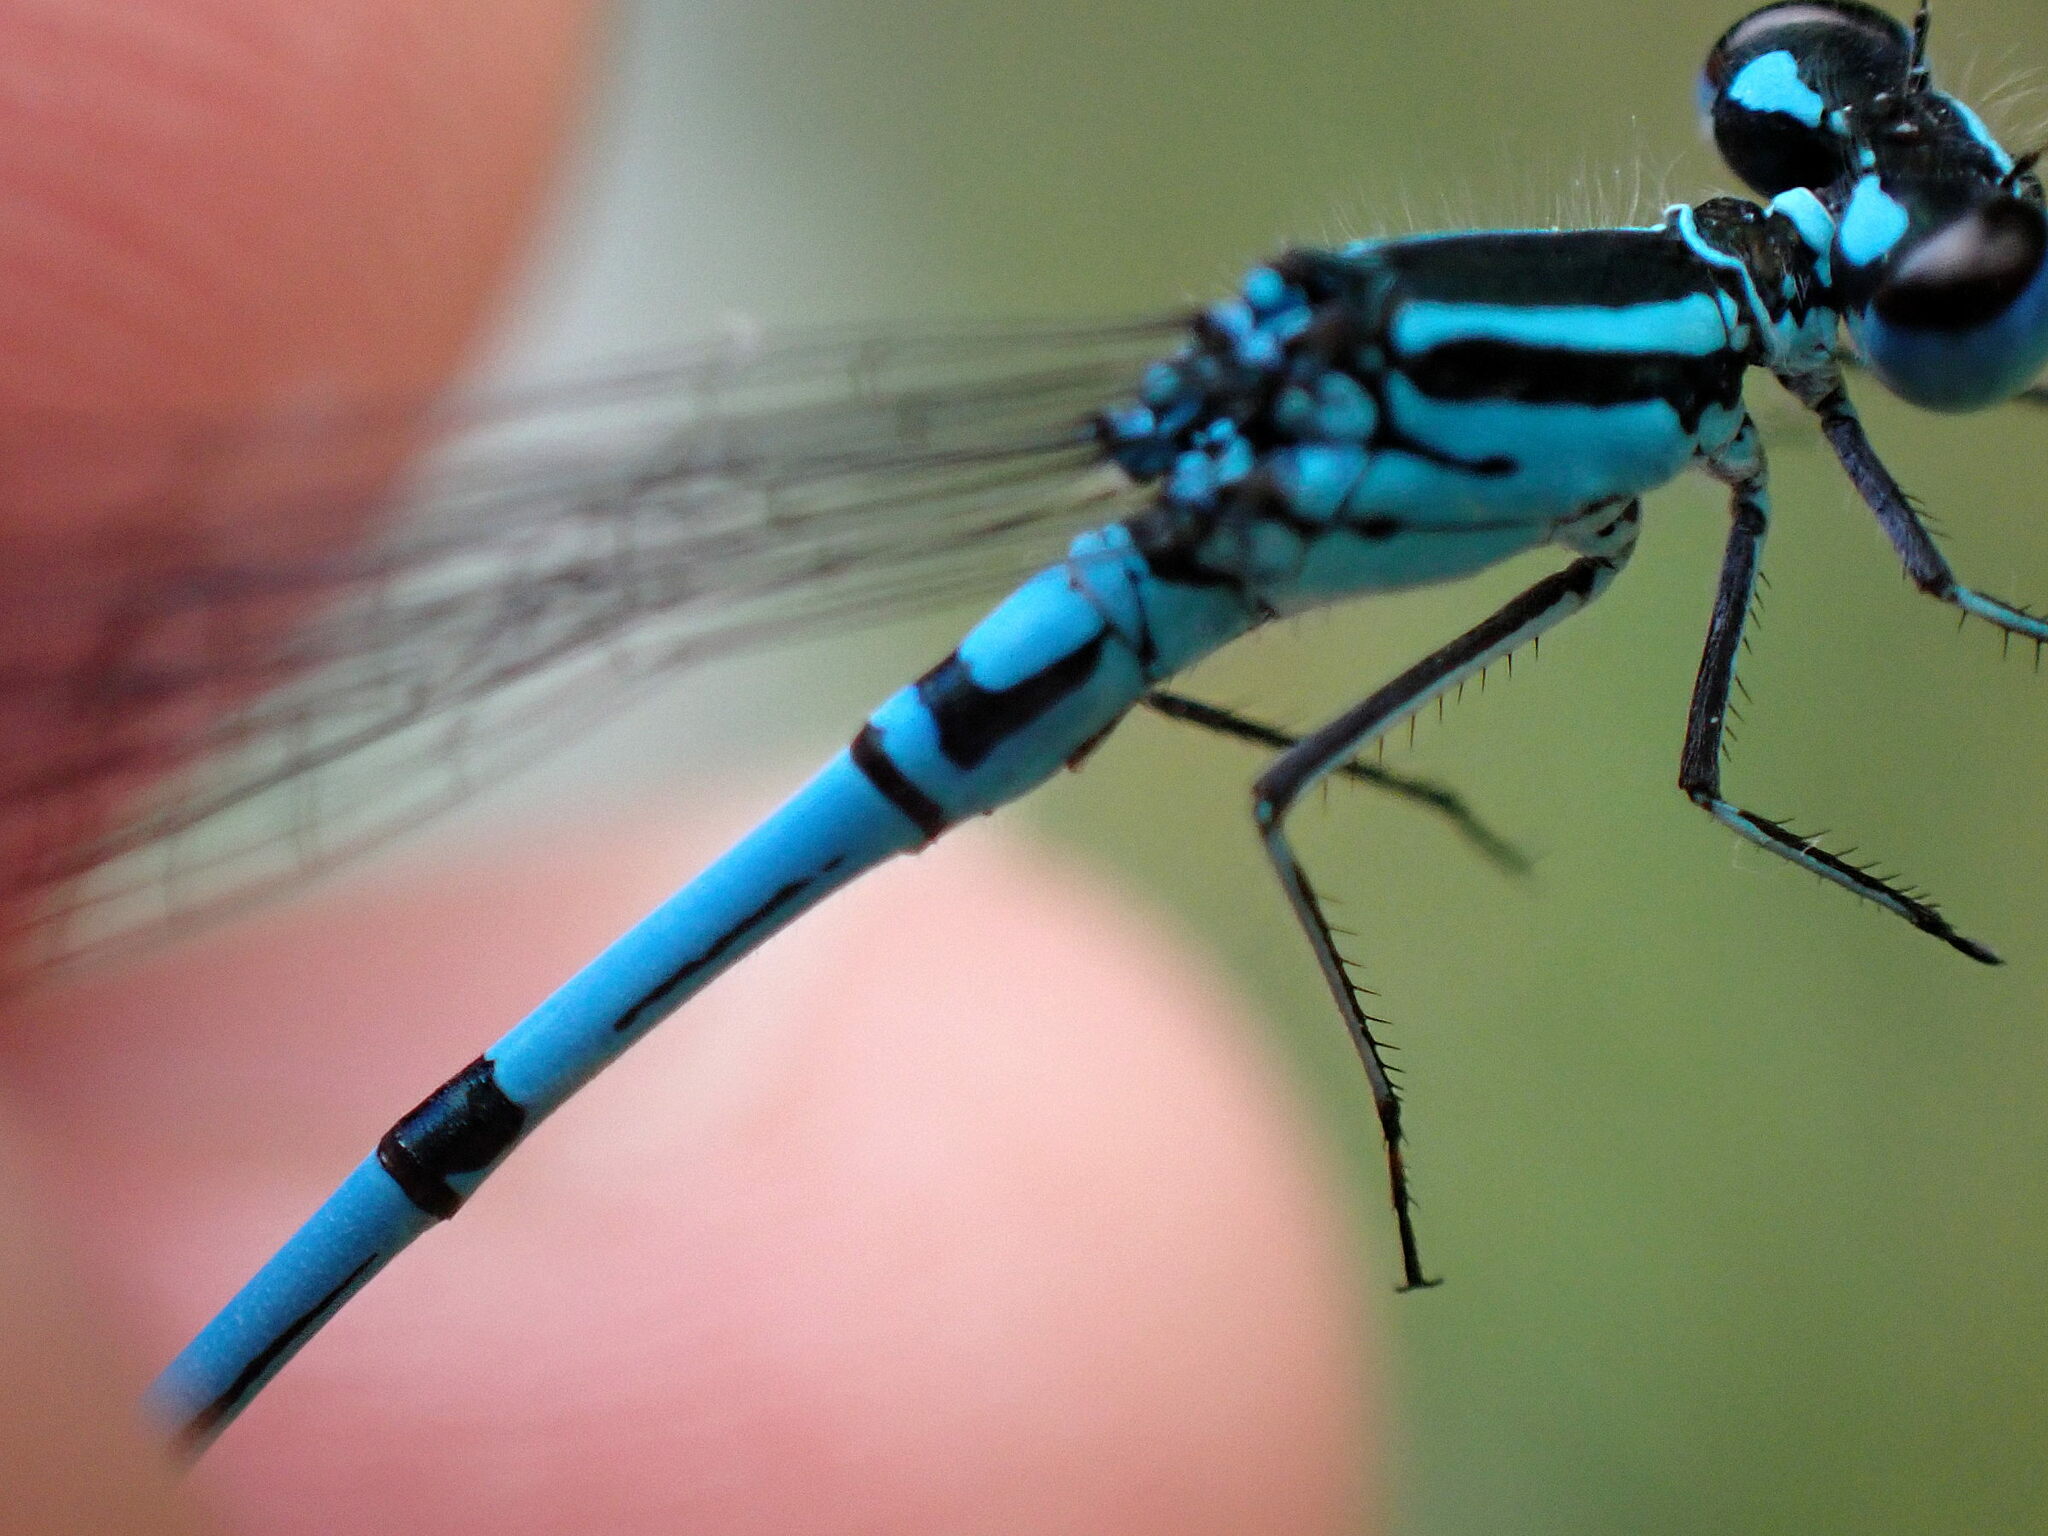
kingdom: Animalia
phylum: Arthropoda
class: Insecta
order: Odonata
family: Coenagrionidae
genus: Coenagrion
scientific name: Coenagrion puella
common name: Azure damselfly
